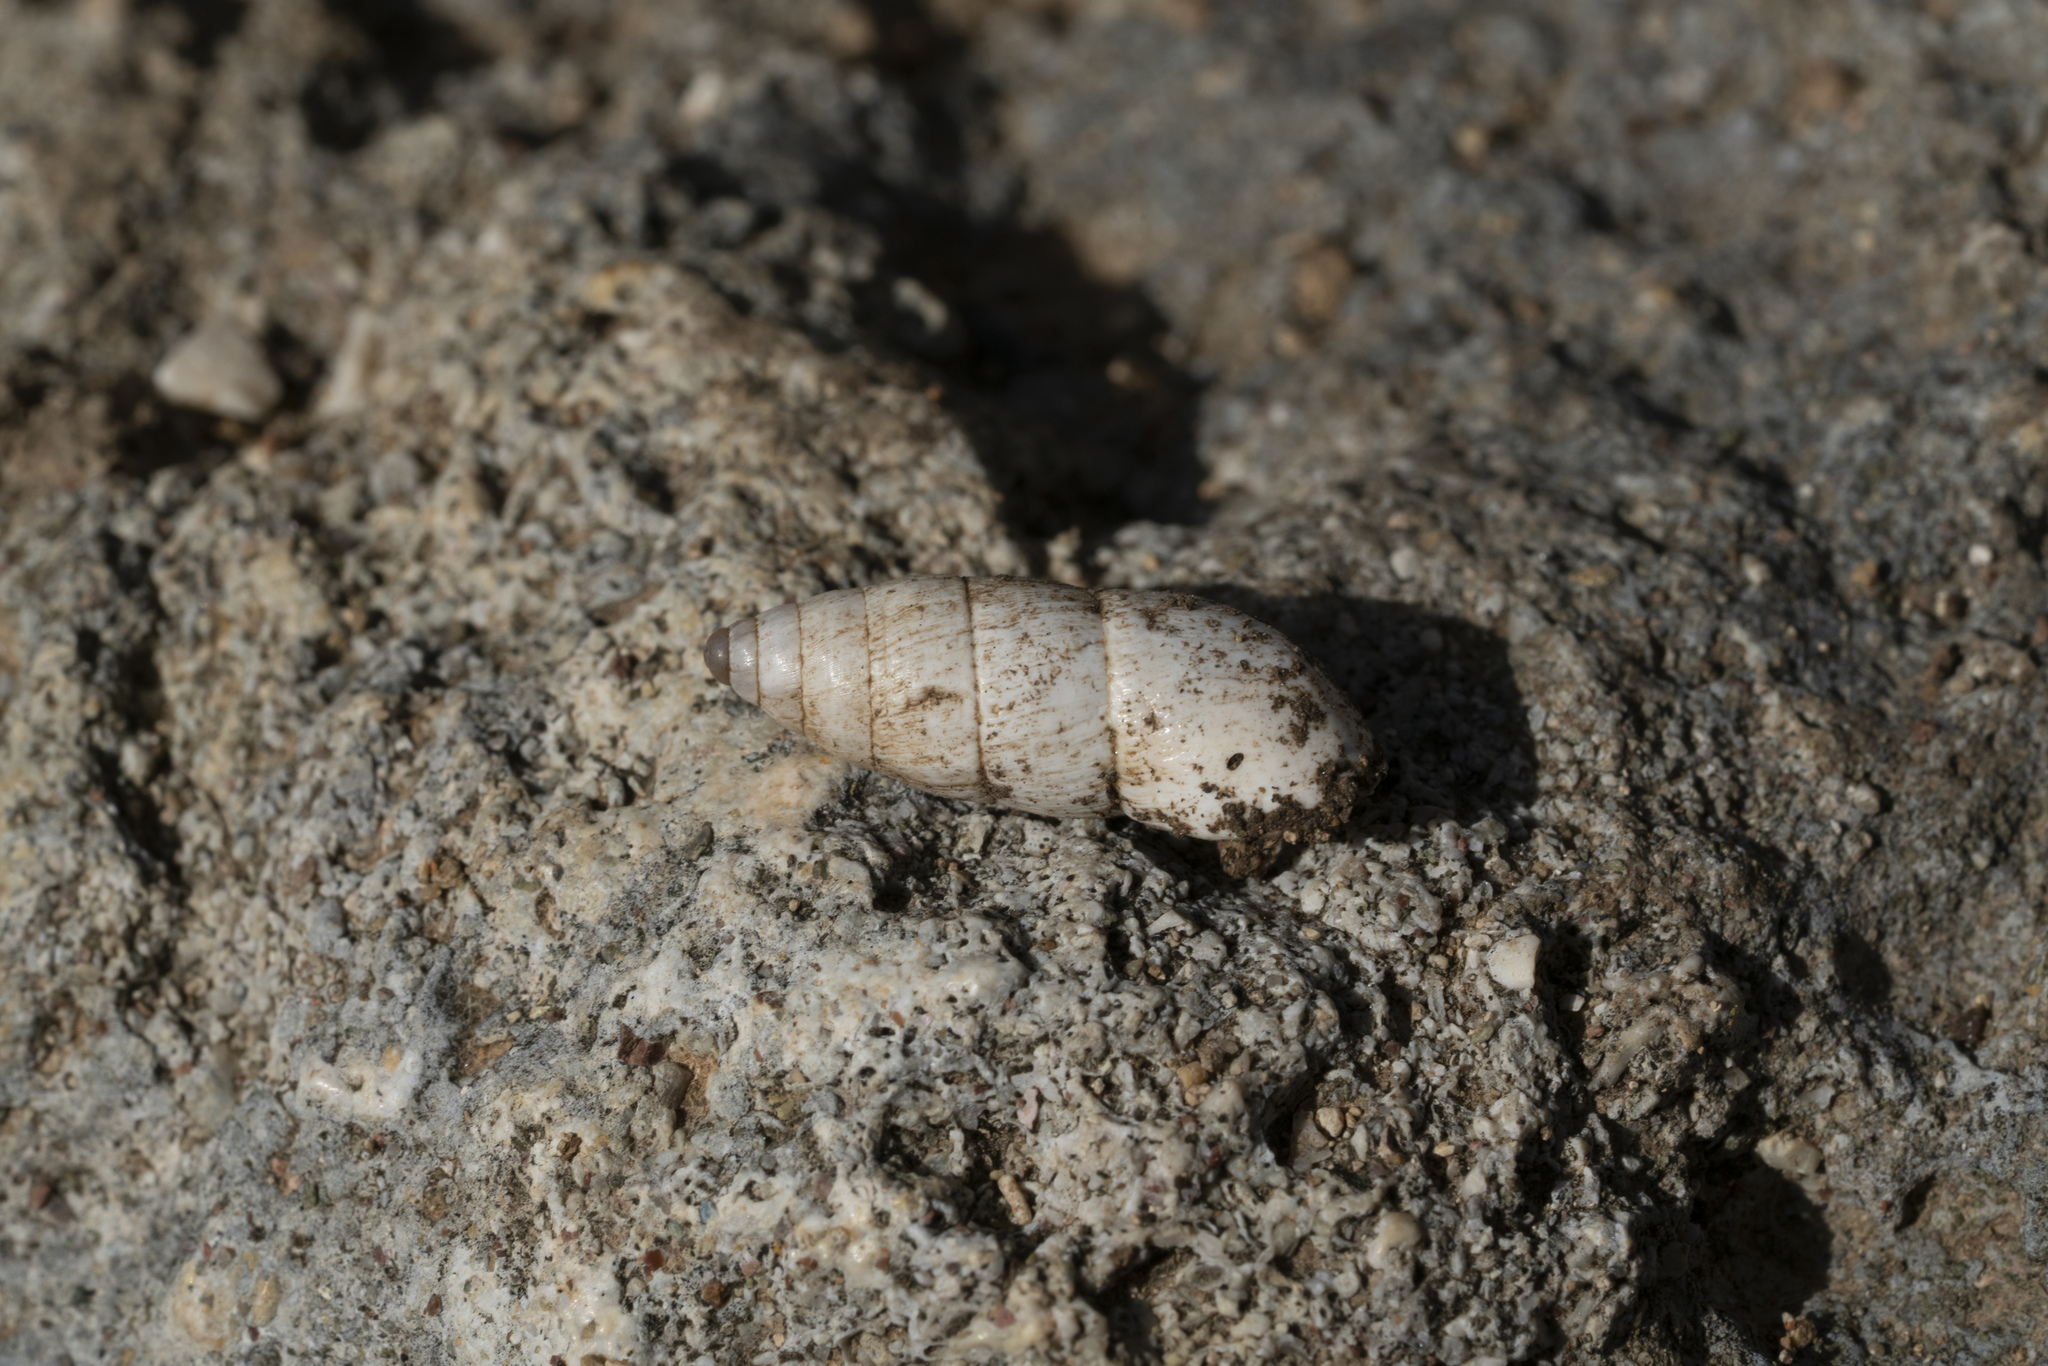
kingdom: Animalia
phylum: Mollusca
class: Gastropoda
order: Stylommatophora
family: Enidae
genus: Zebrina
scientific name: Zebrina fasciolata
